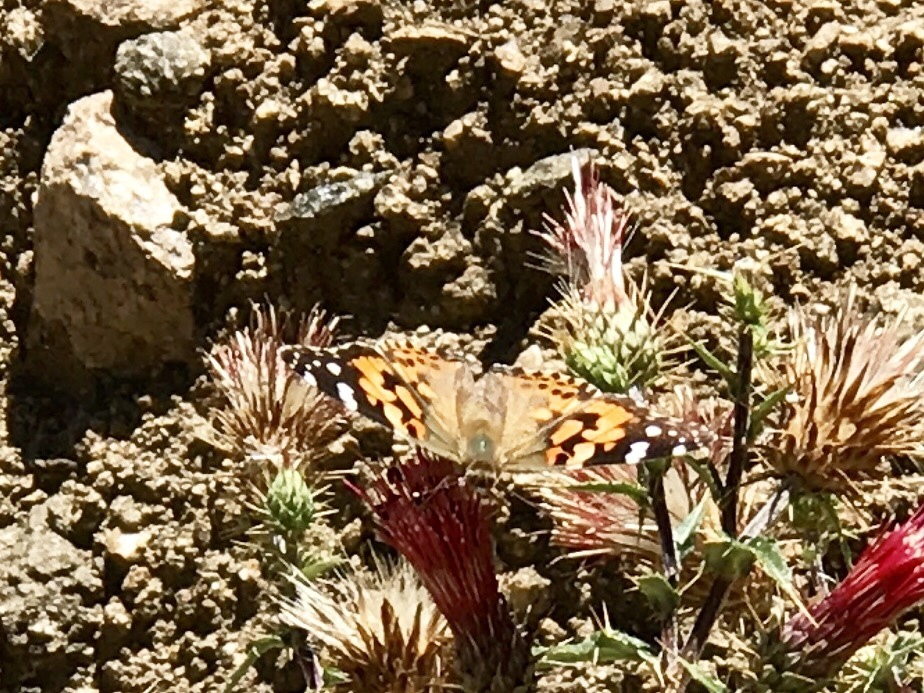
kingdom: Animalia
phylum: Arthropoda
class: Insecta
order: Lepidoptera
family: Nymphalidae
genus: Vanessa
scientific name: Vanessa cardui
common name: Painted lady
